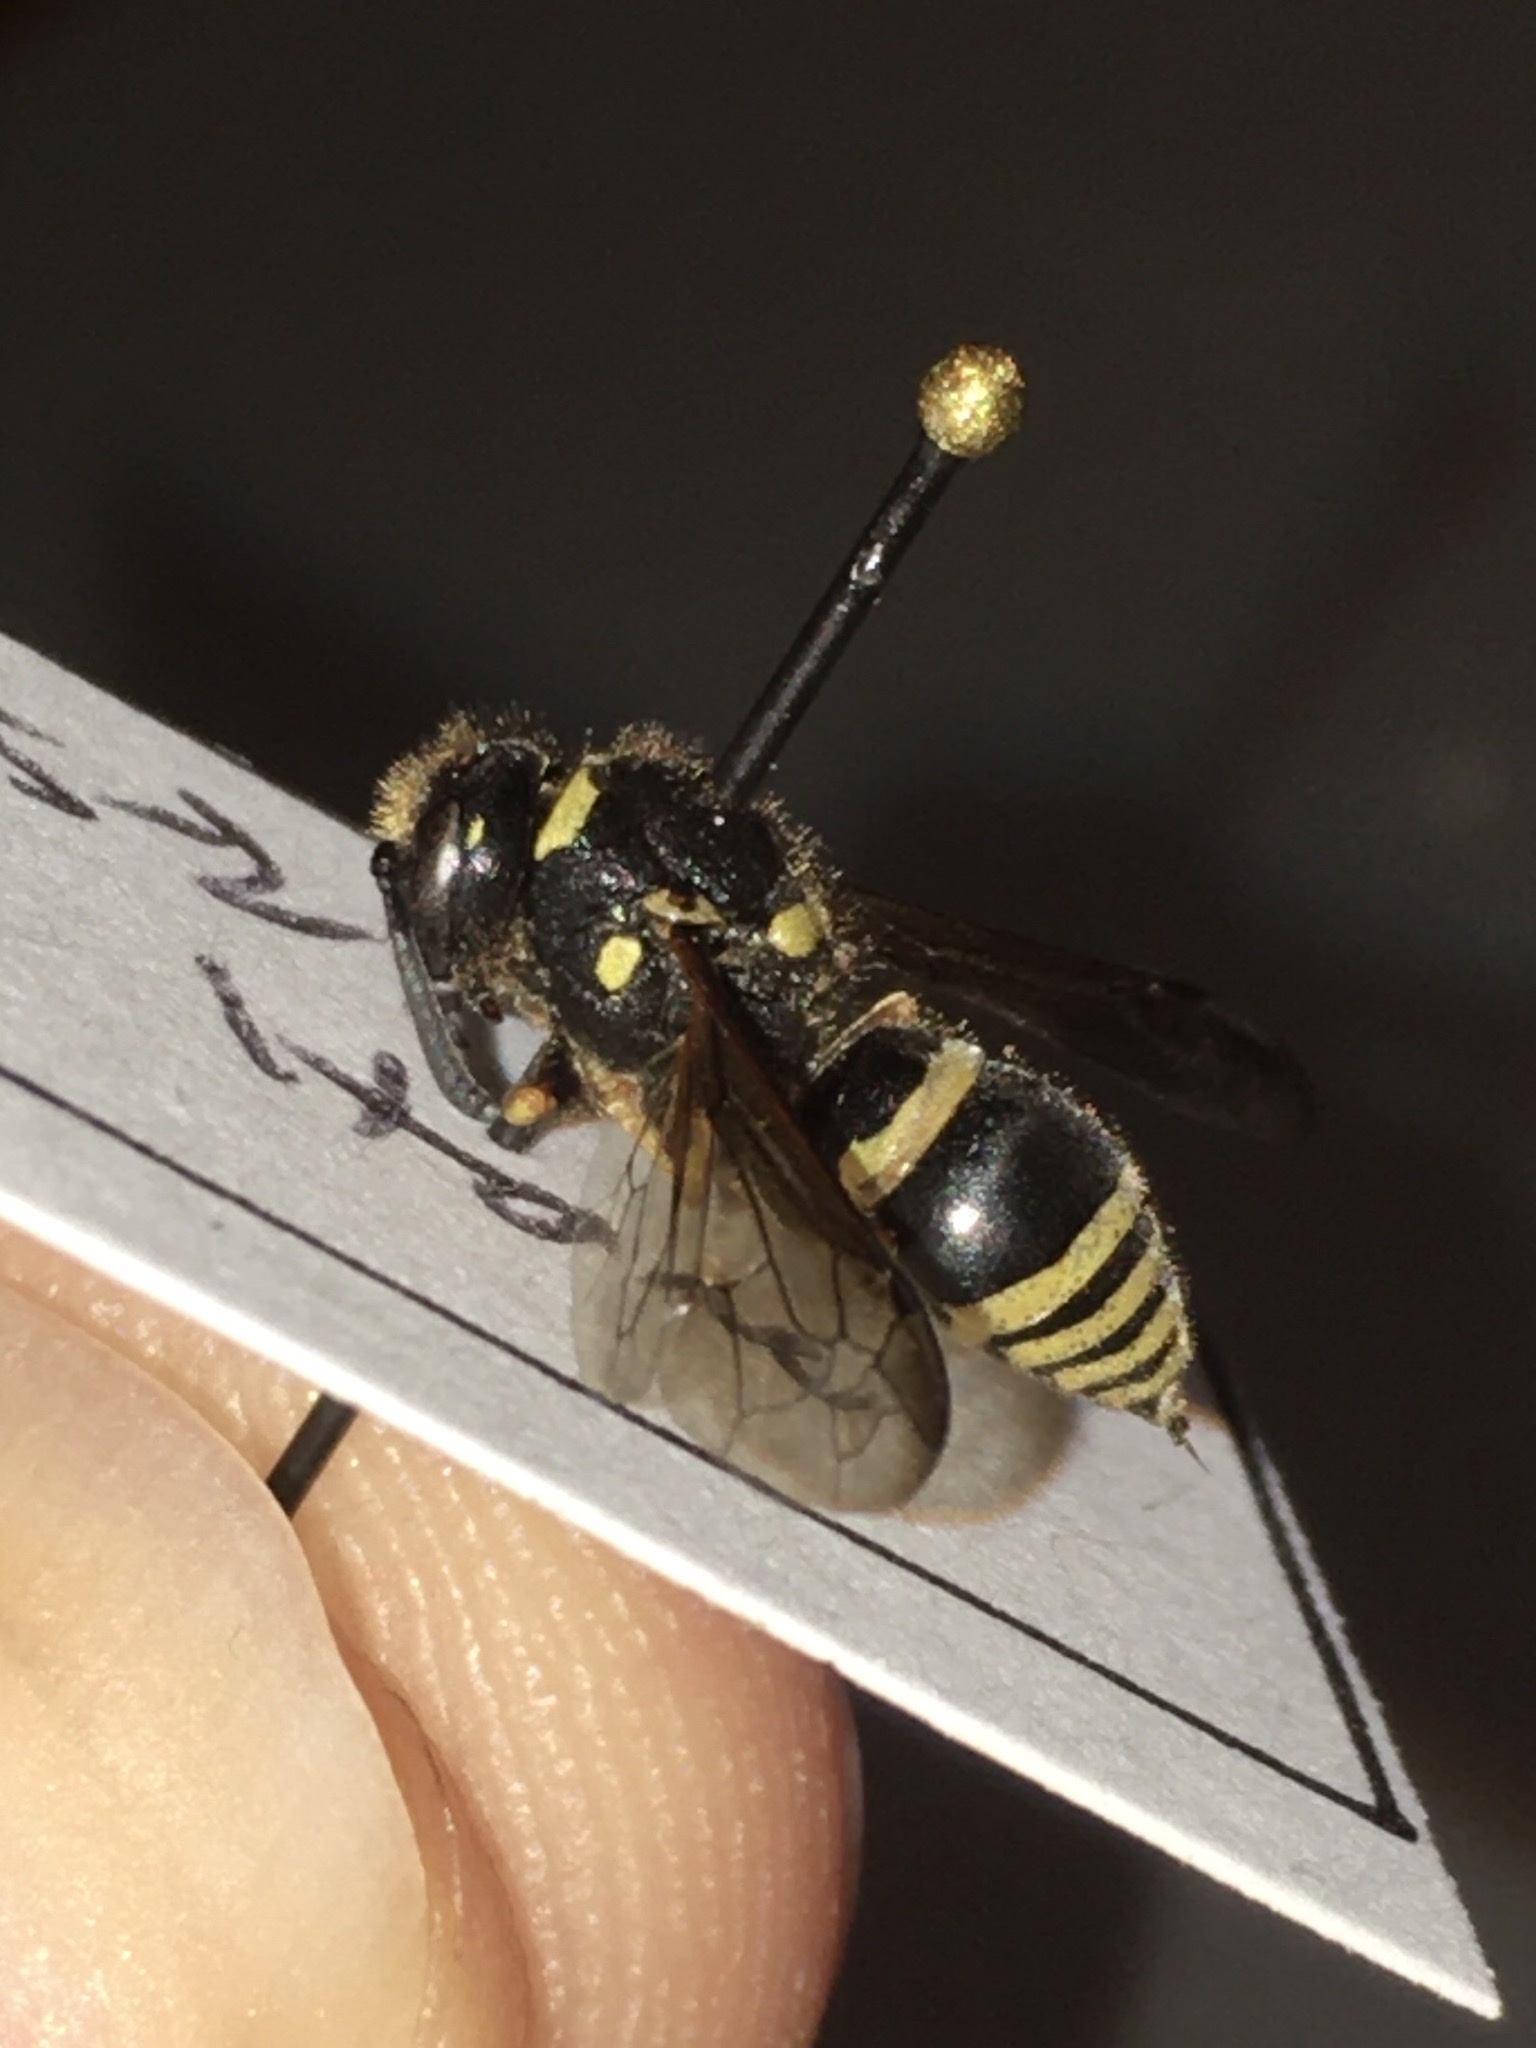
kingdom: Animalia
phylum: Arthropoda
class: Insecta
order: Hymenoptera
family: Vespidae
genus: Ancistrocerus
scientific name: Ancistrocerus waldenii
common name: Walden’s potter wasp
